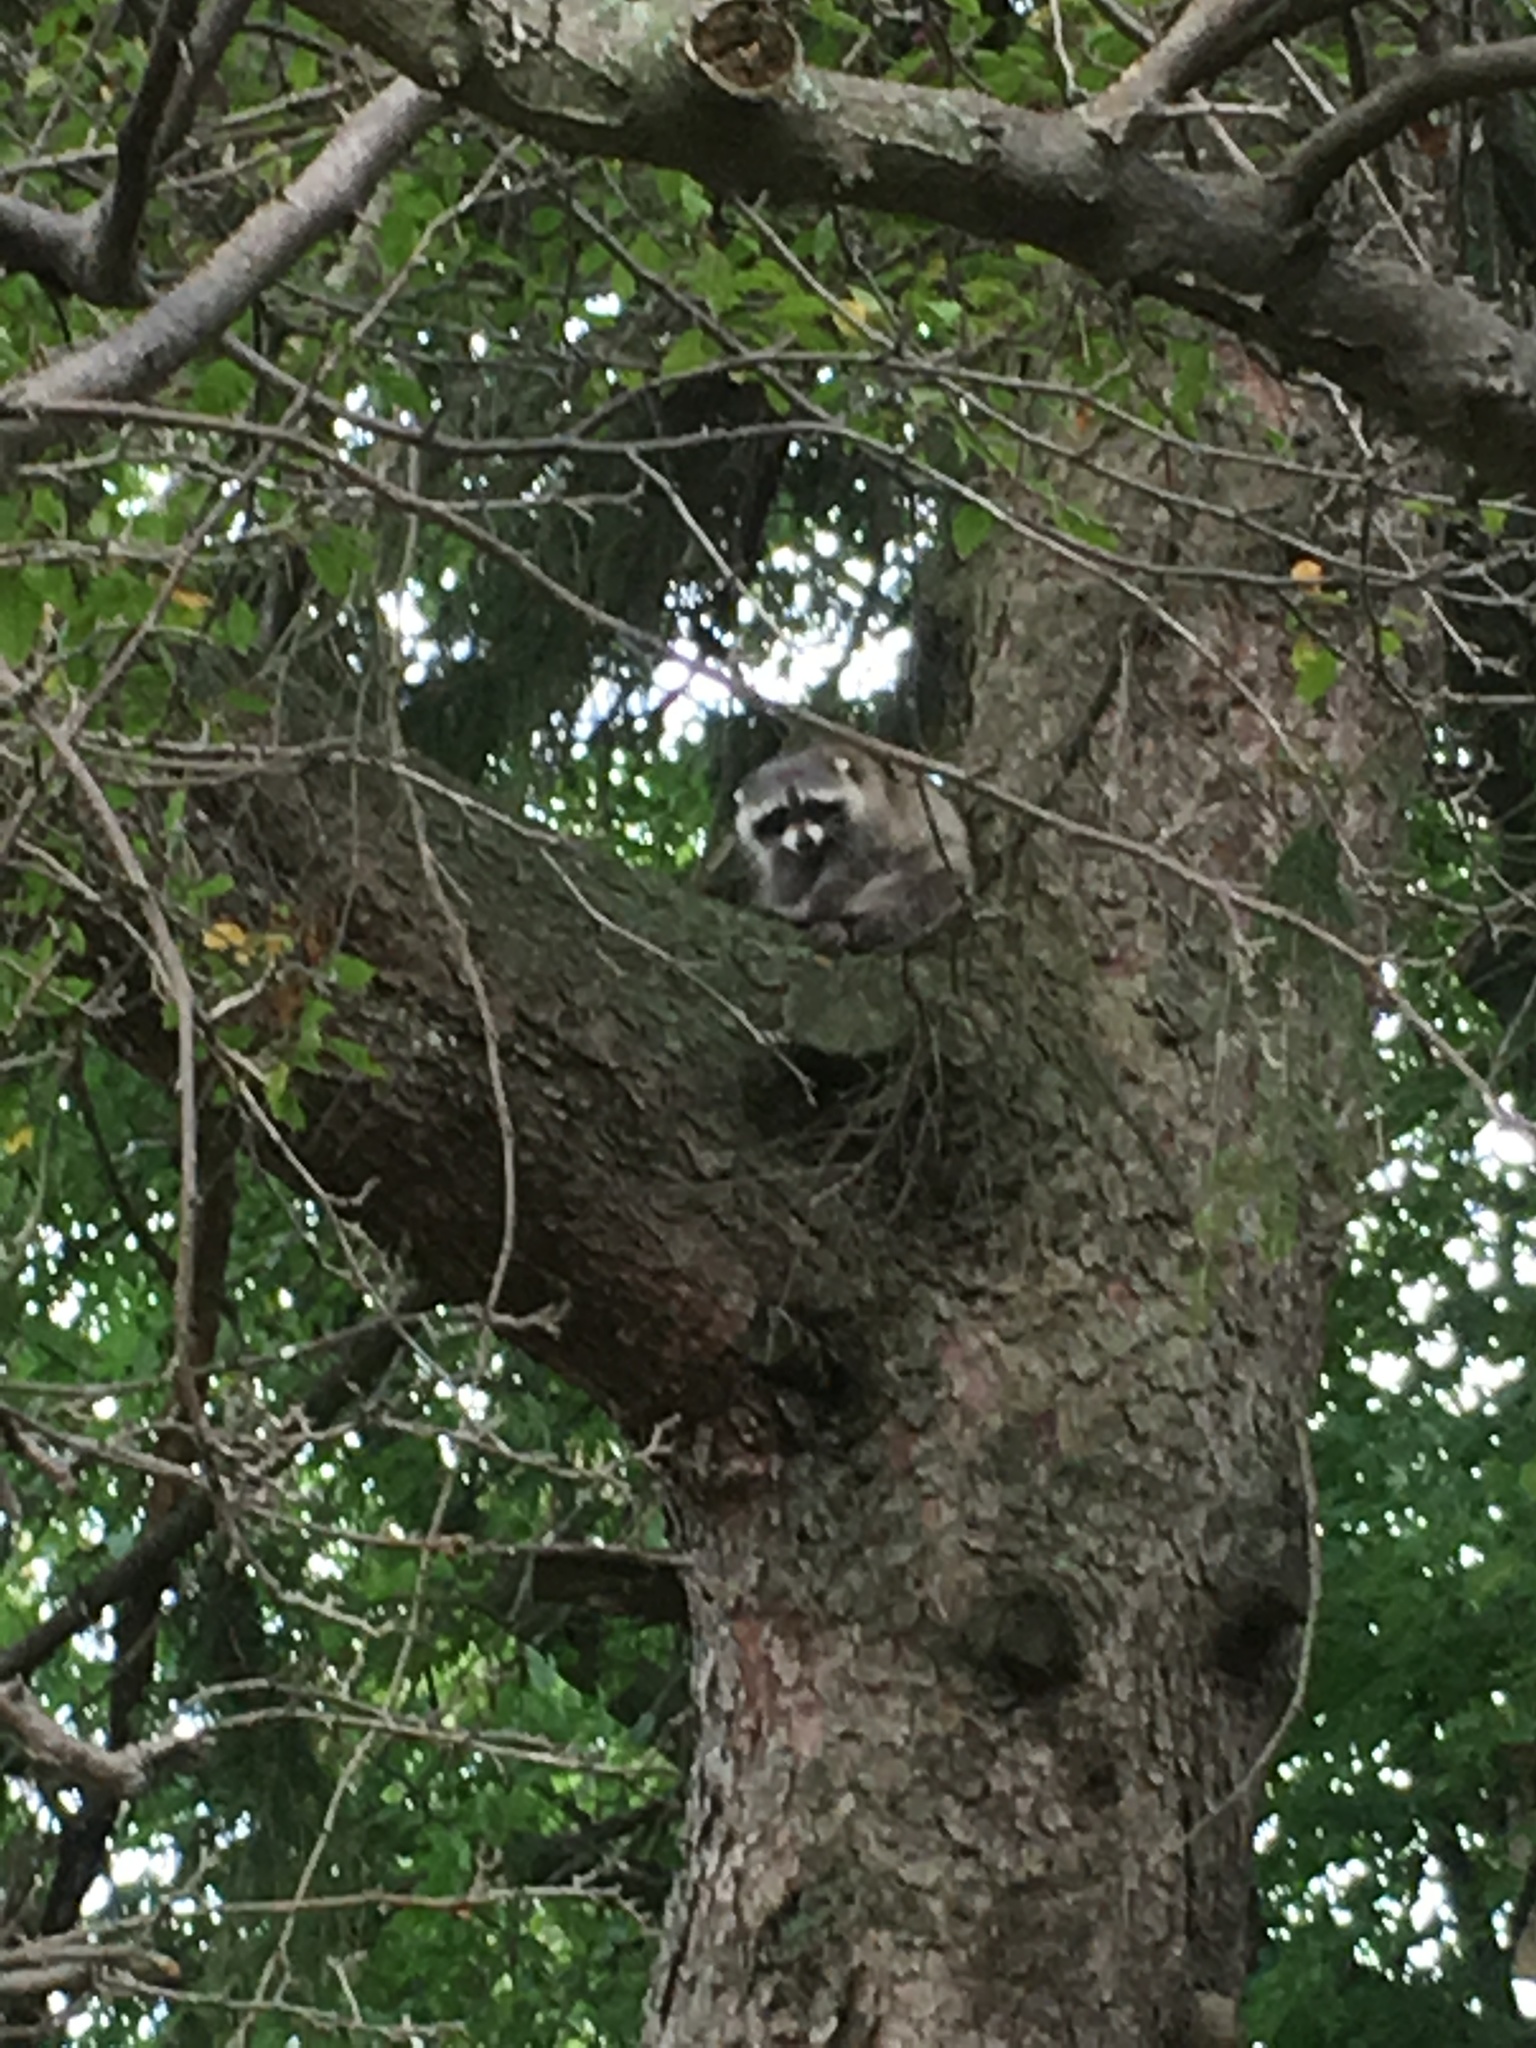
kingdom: Animalia
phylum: Chordata
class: Mammalia
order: Carnivora
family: Procyonidae
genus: Procyon
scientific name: Procyon lotor
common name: Raccoon
